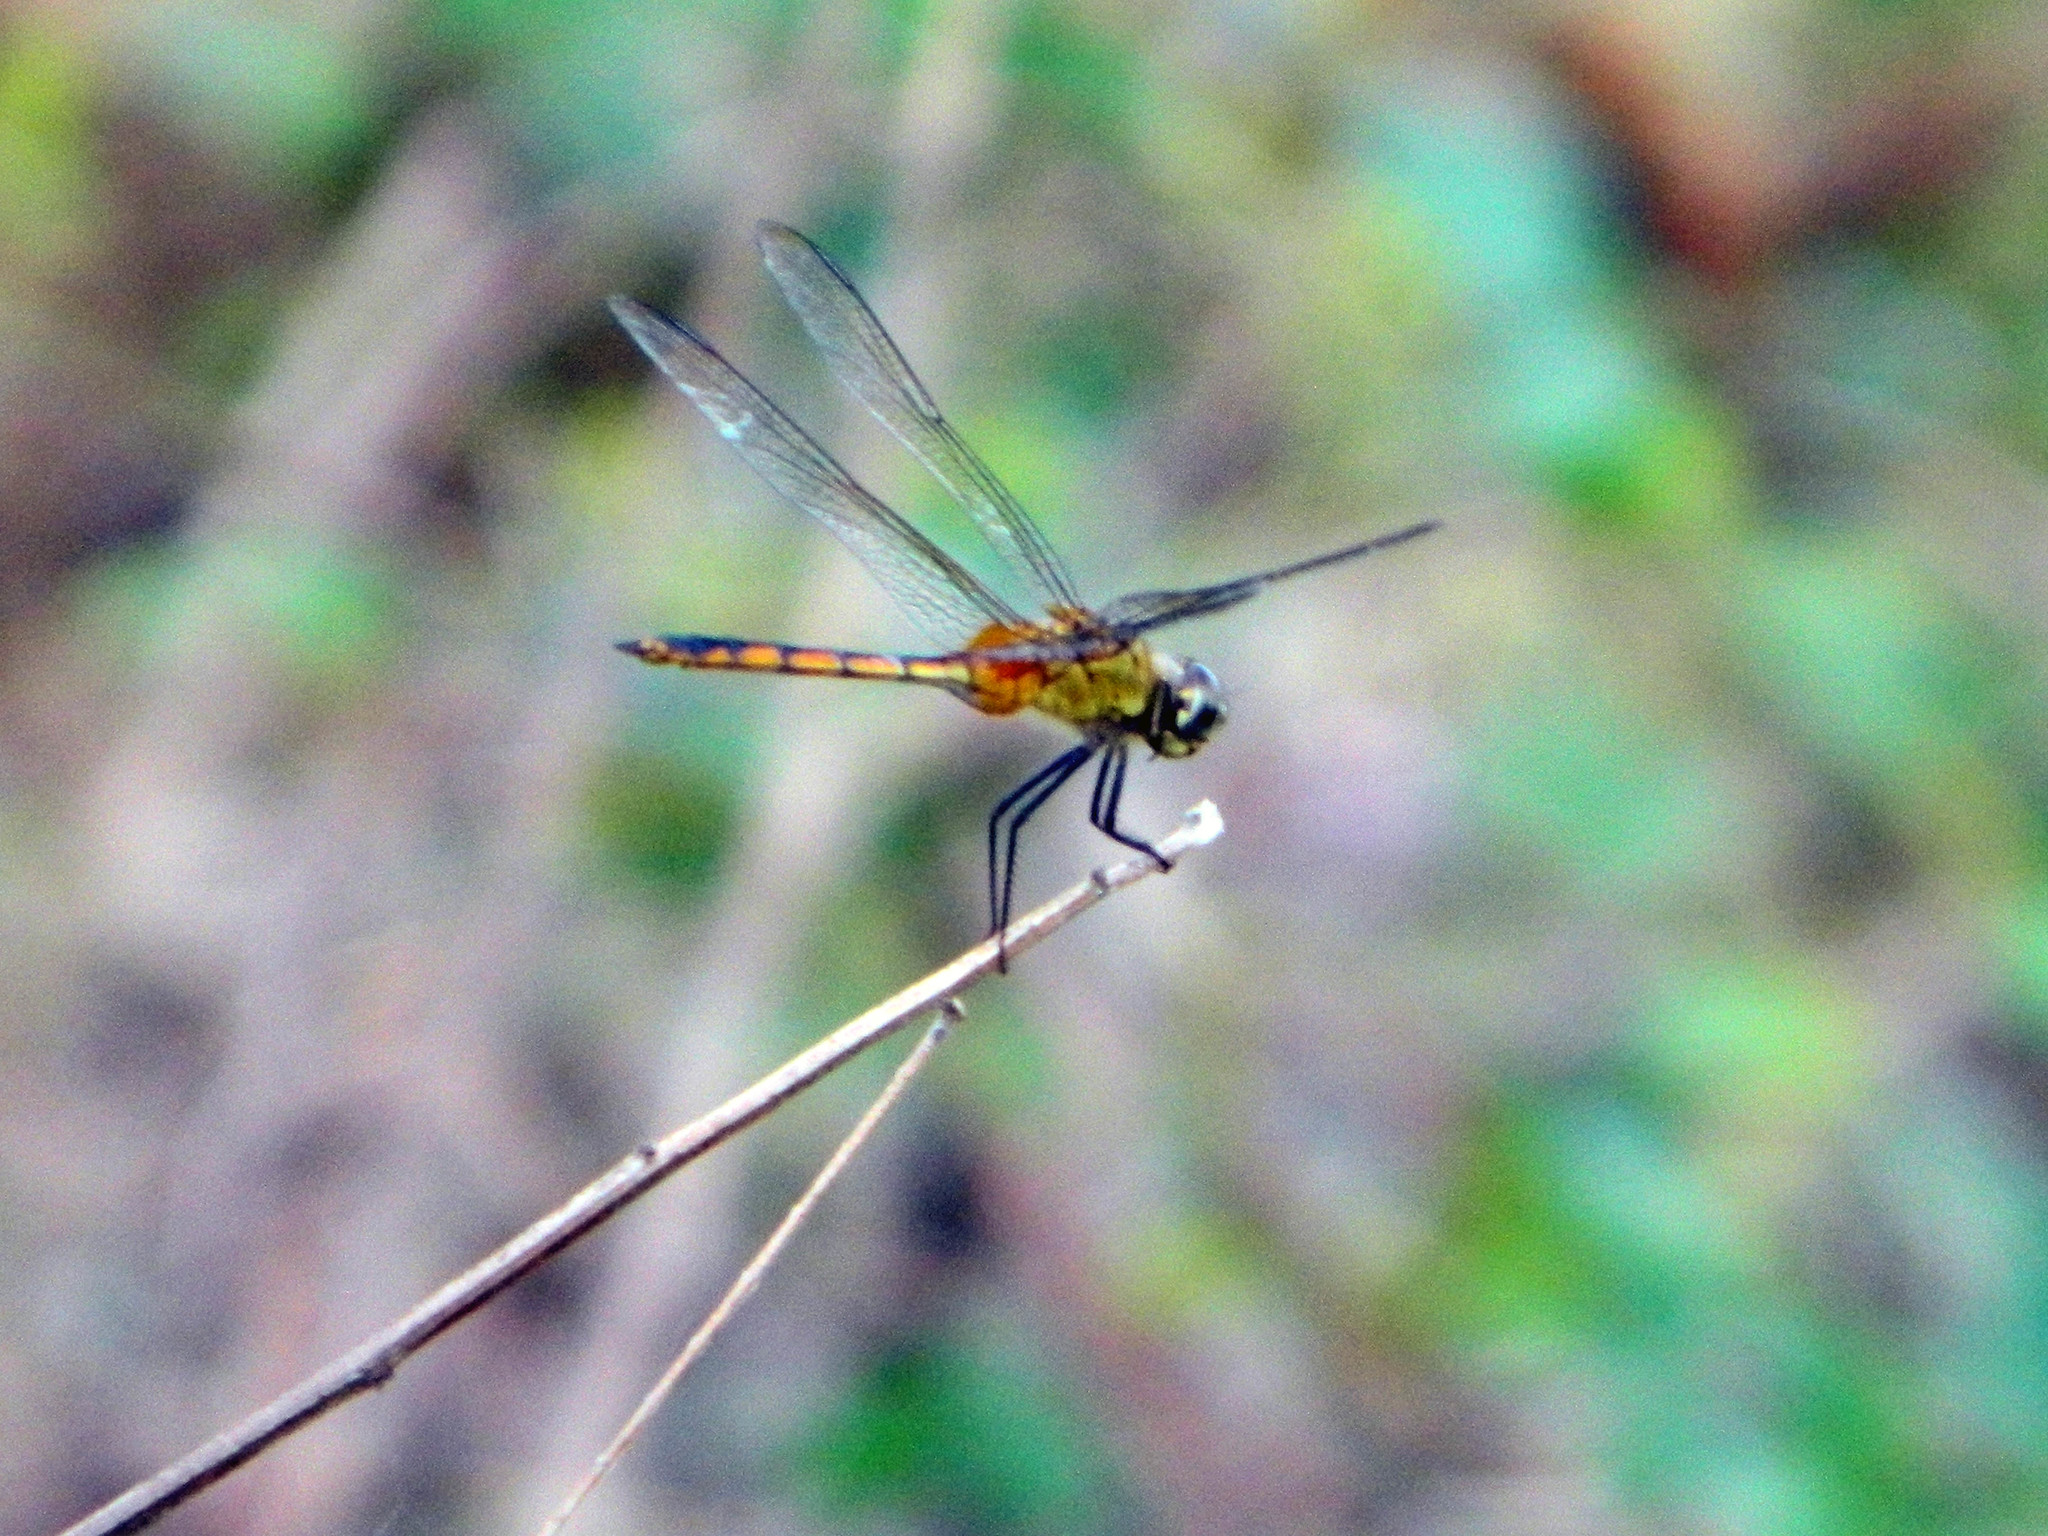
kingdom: Animalia
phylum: Arthropoda
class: Insecta
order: Odonata
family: Libellulidae
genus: Brachymesia
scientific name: Brachymesia herbida
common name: Tawny pennant
